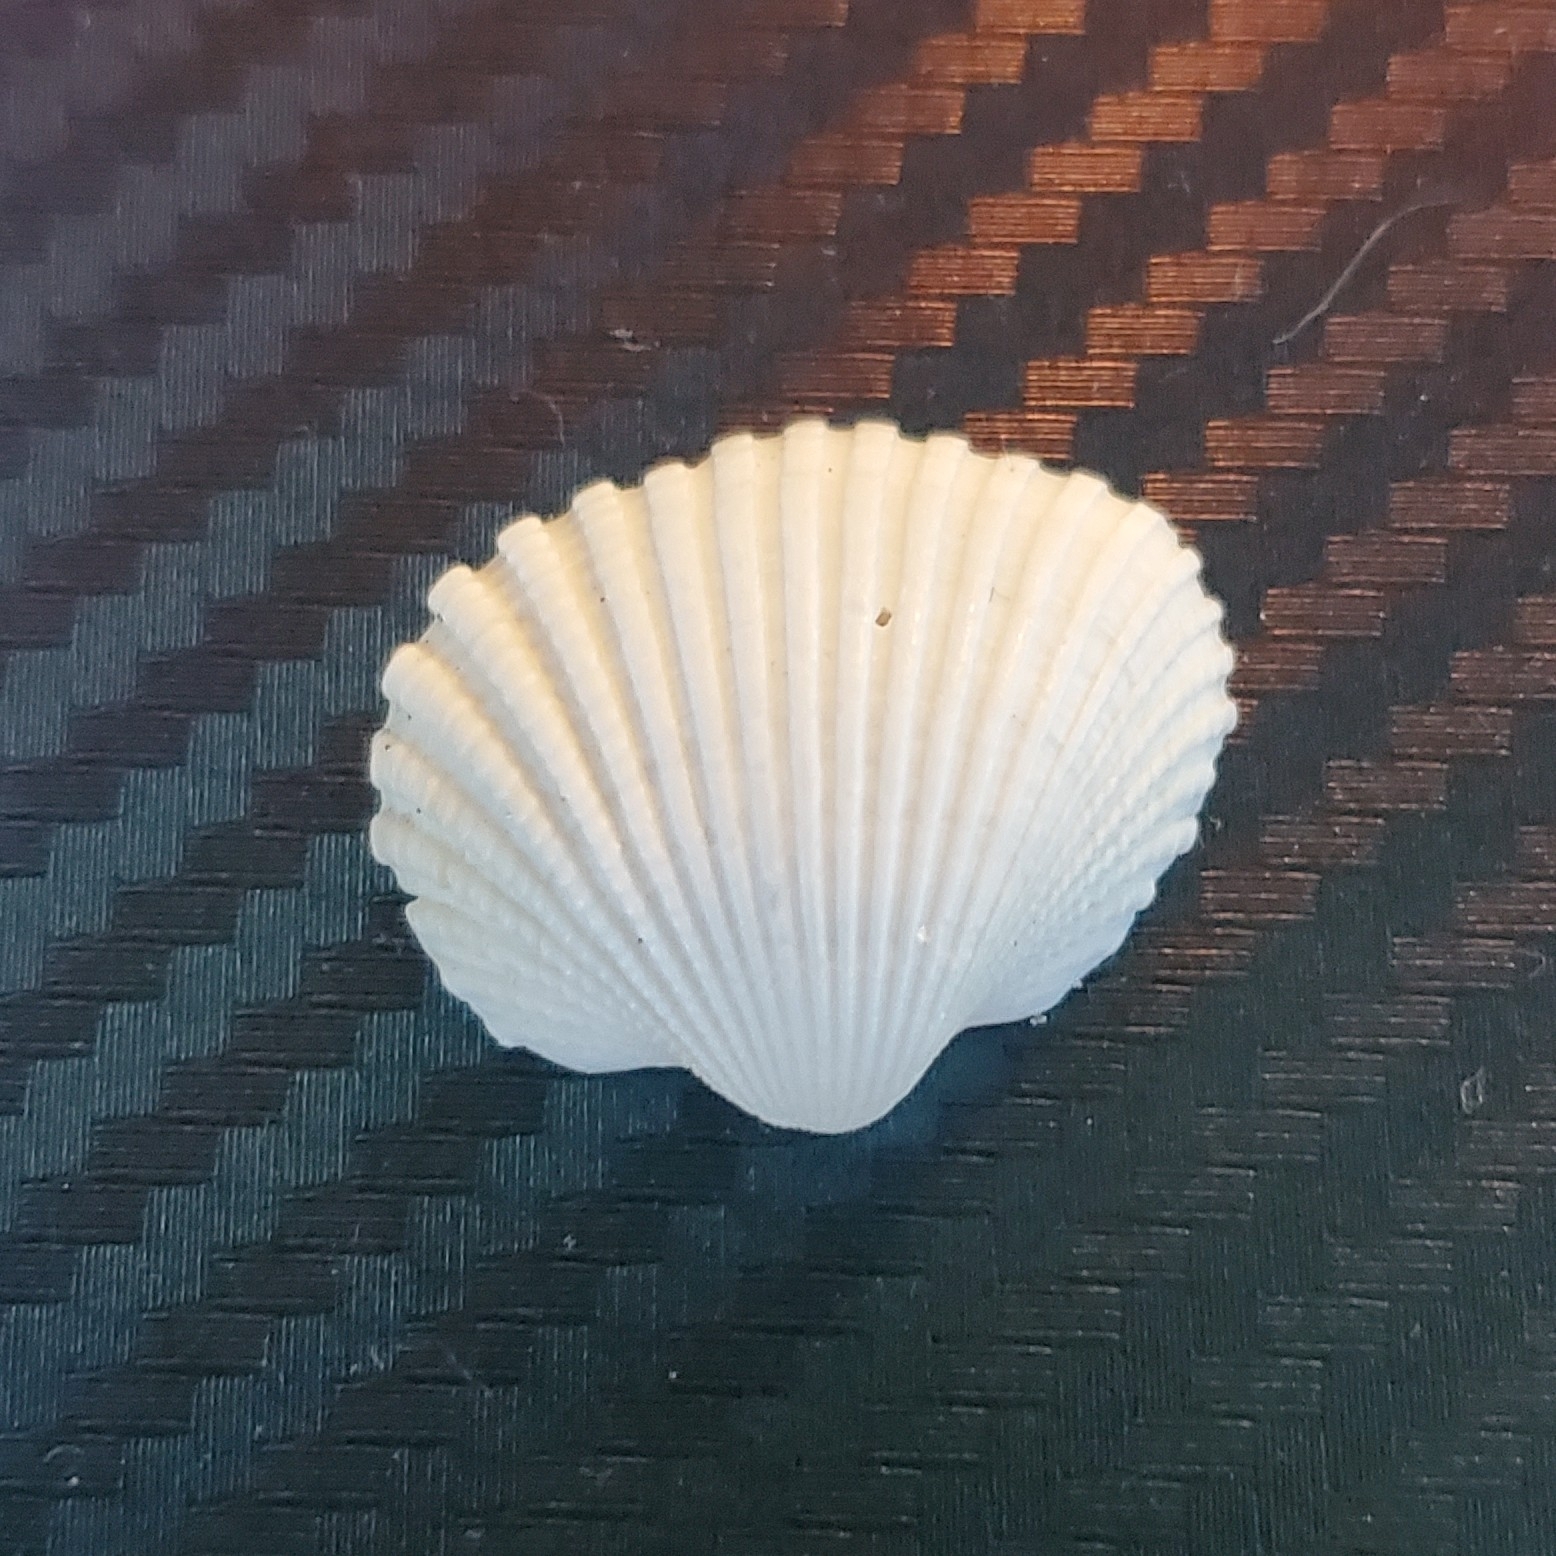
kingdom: Animalia
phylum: Mollusca
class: Bivalvia
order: Arcida
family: Arcidae
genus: Anadara
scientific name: Anadara brasiliana
